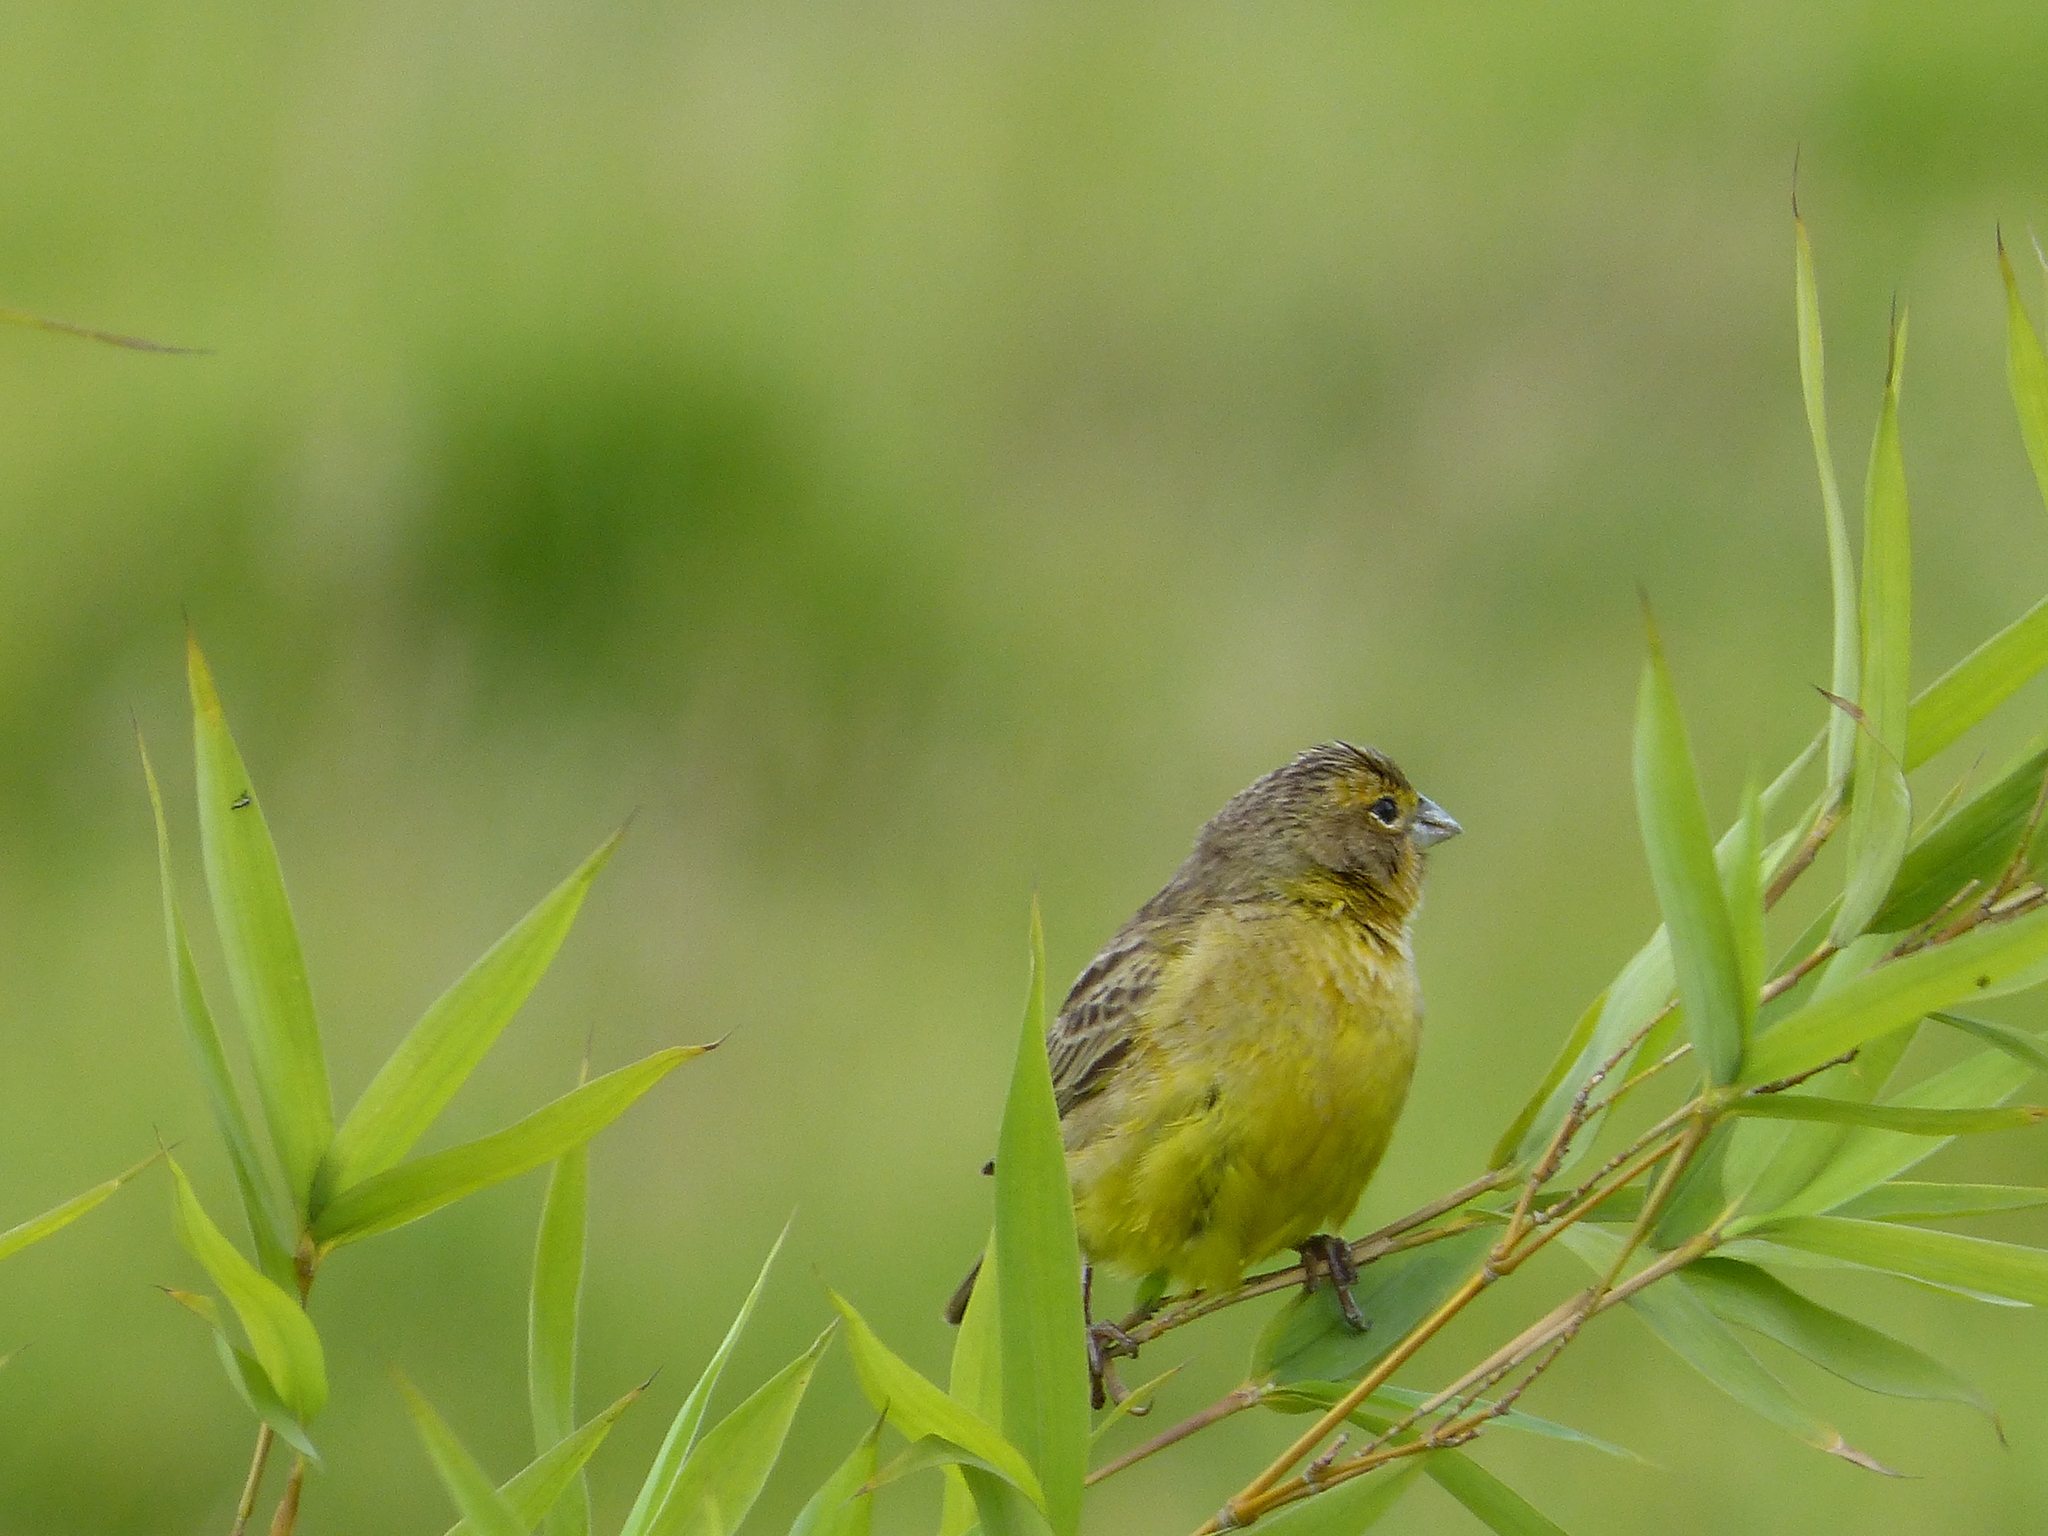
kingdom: Animalia
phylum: Chordata
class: Aves
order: Passeriformes
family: Thraupidae
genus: Sicalis
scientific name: Sicalis luteola
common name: Grassland yellow-finch
